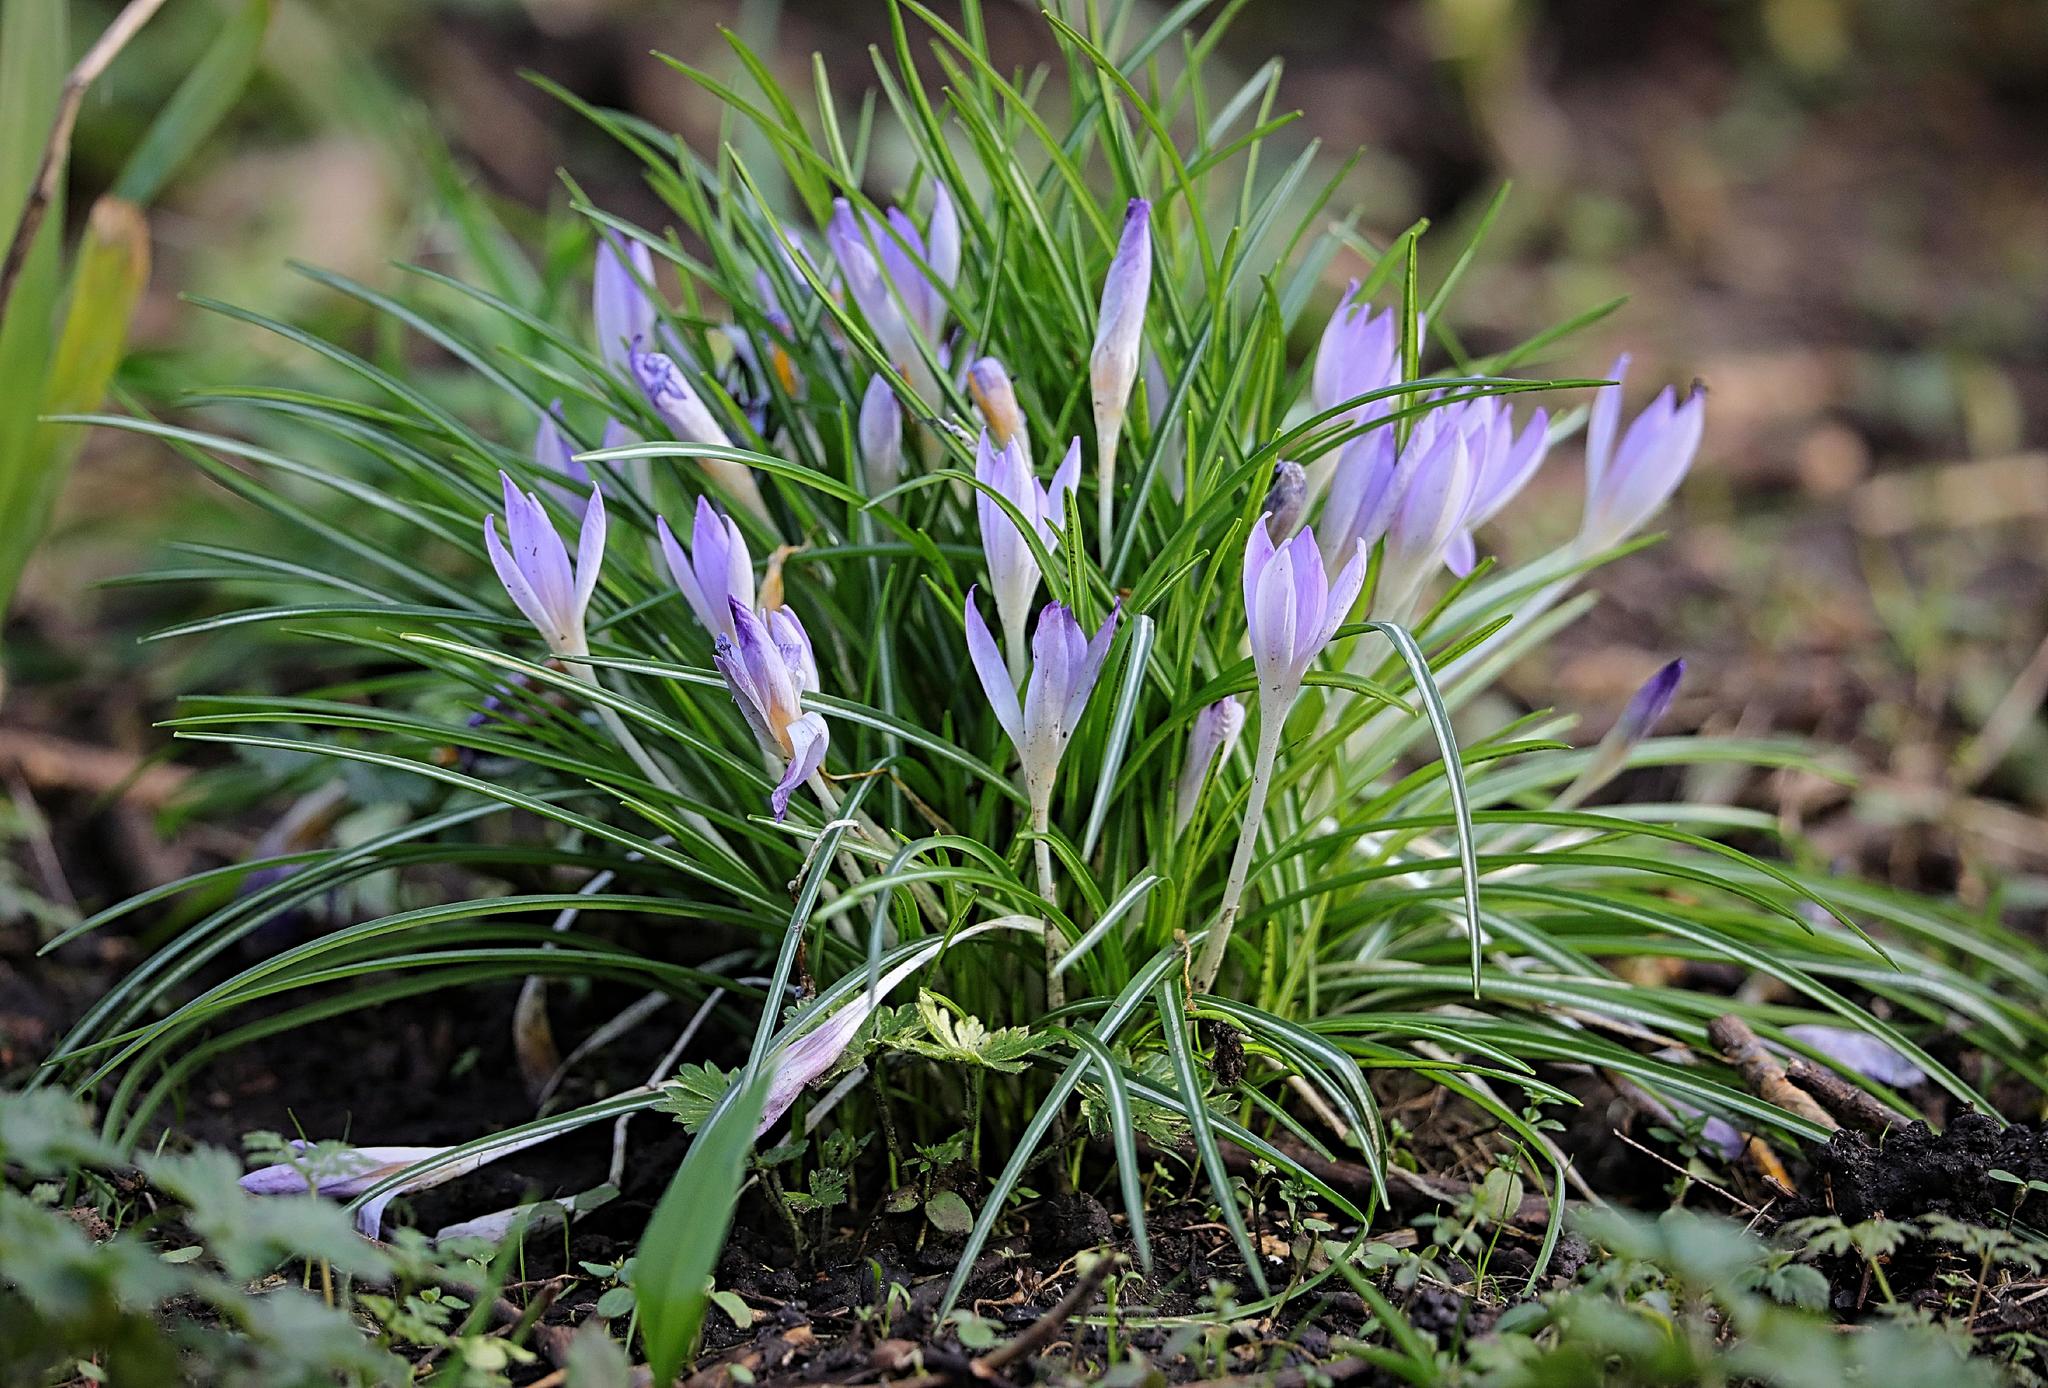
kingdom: Plantae
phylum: Tracheophyta
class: Liliopsida
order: Asparagales
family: Iridaceae
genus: Crocus
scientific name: Crocus tommasinianus
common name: Early crocus
